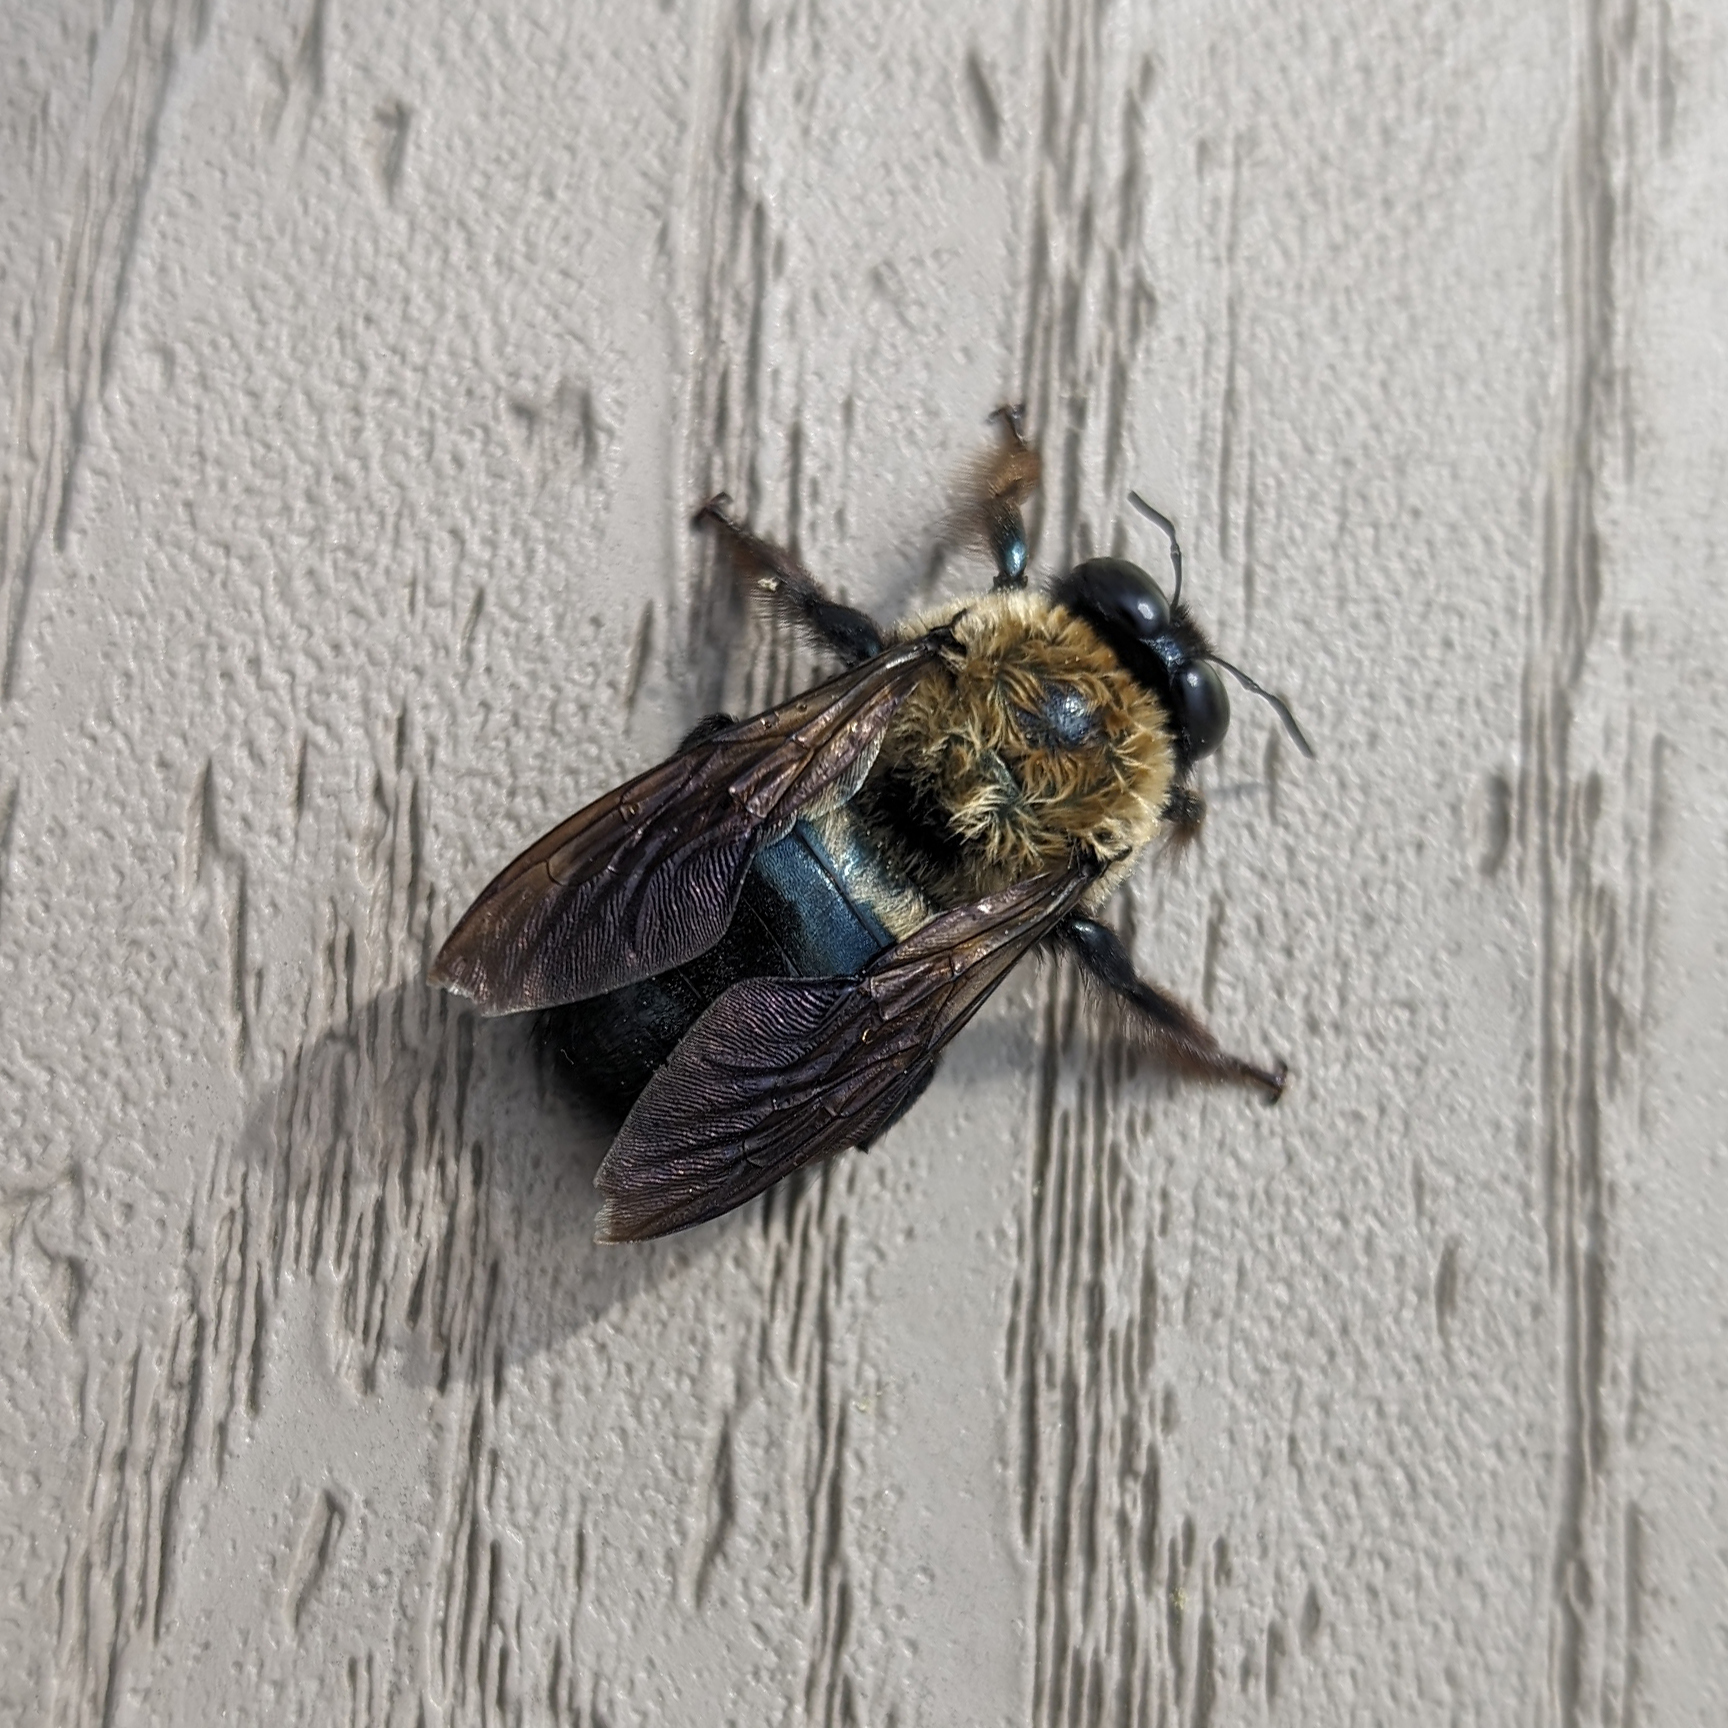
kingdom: Animalia
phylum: Arthropoda
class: Insecta
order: Hymenoptera
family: Apidae
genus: Xylocopa
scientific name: Xylocopa virginica
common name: Carpenter bee
